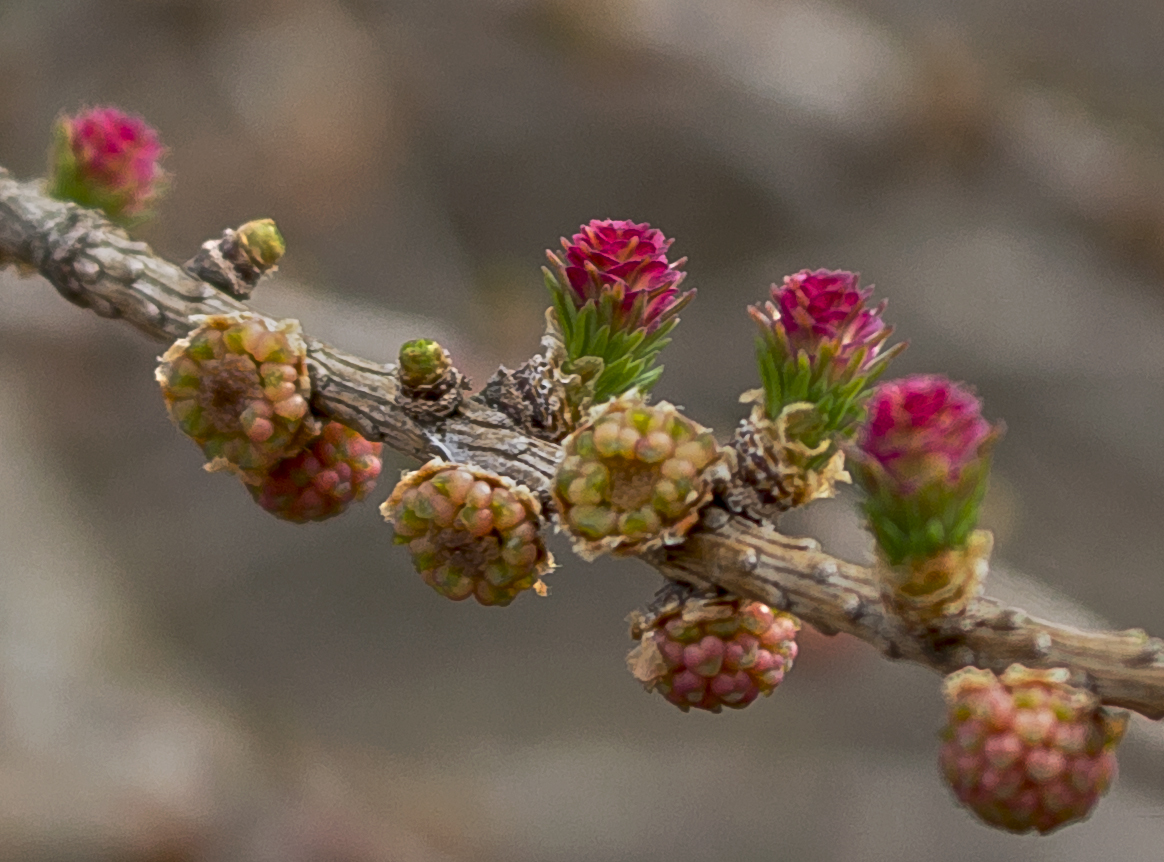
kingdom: Plantae
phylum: Tracheophyta
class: Pinopsida
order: Pinales
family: Pinaceae
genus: Larix
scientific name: Larix laricina
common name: American larch
